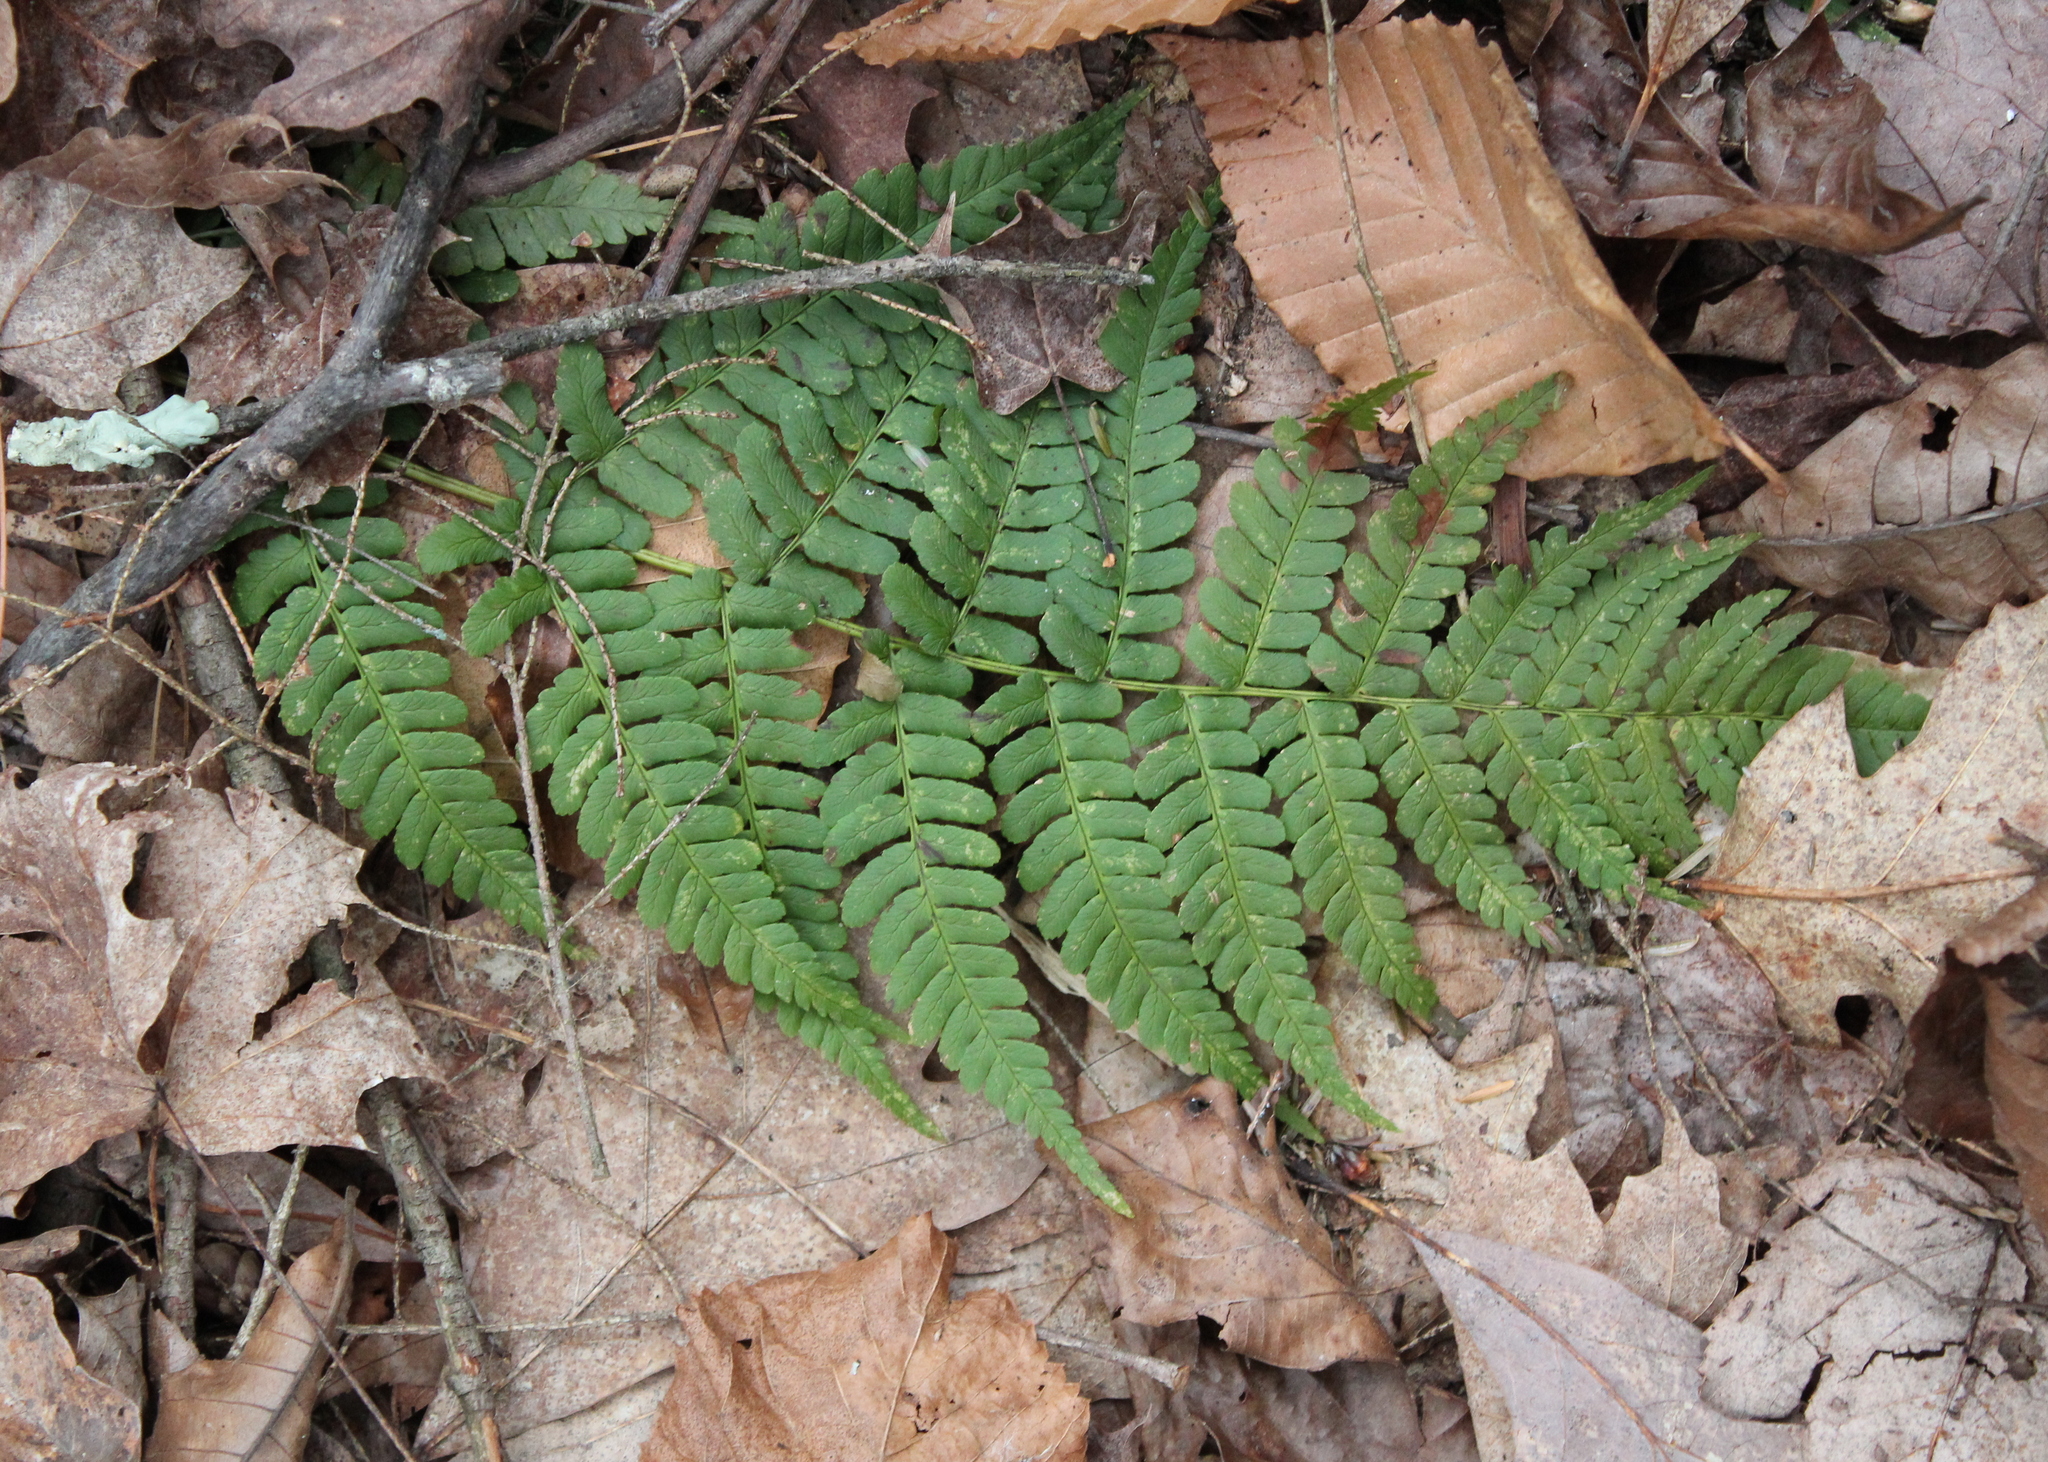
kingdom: Plantae
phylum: Tracheophyta
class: Polypodiopsida
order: Polypodiales
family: Dryopteridaceae
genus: Dryopteris
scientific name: Dryopteris marginalis
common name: Marginal wood fern
